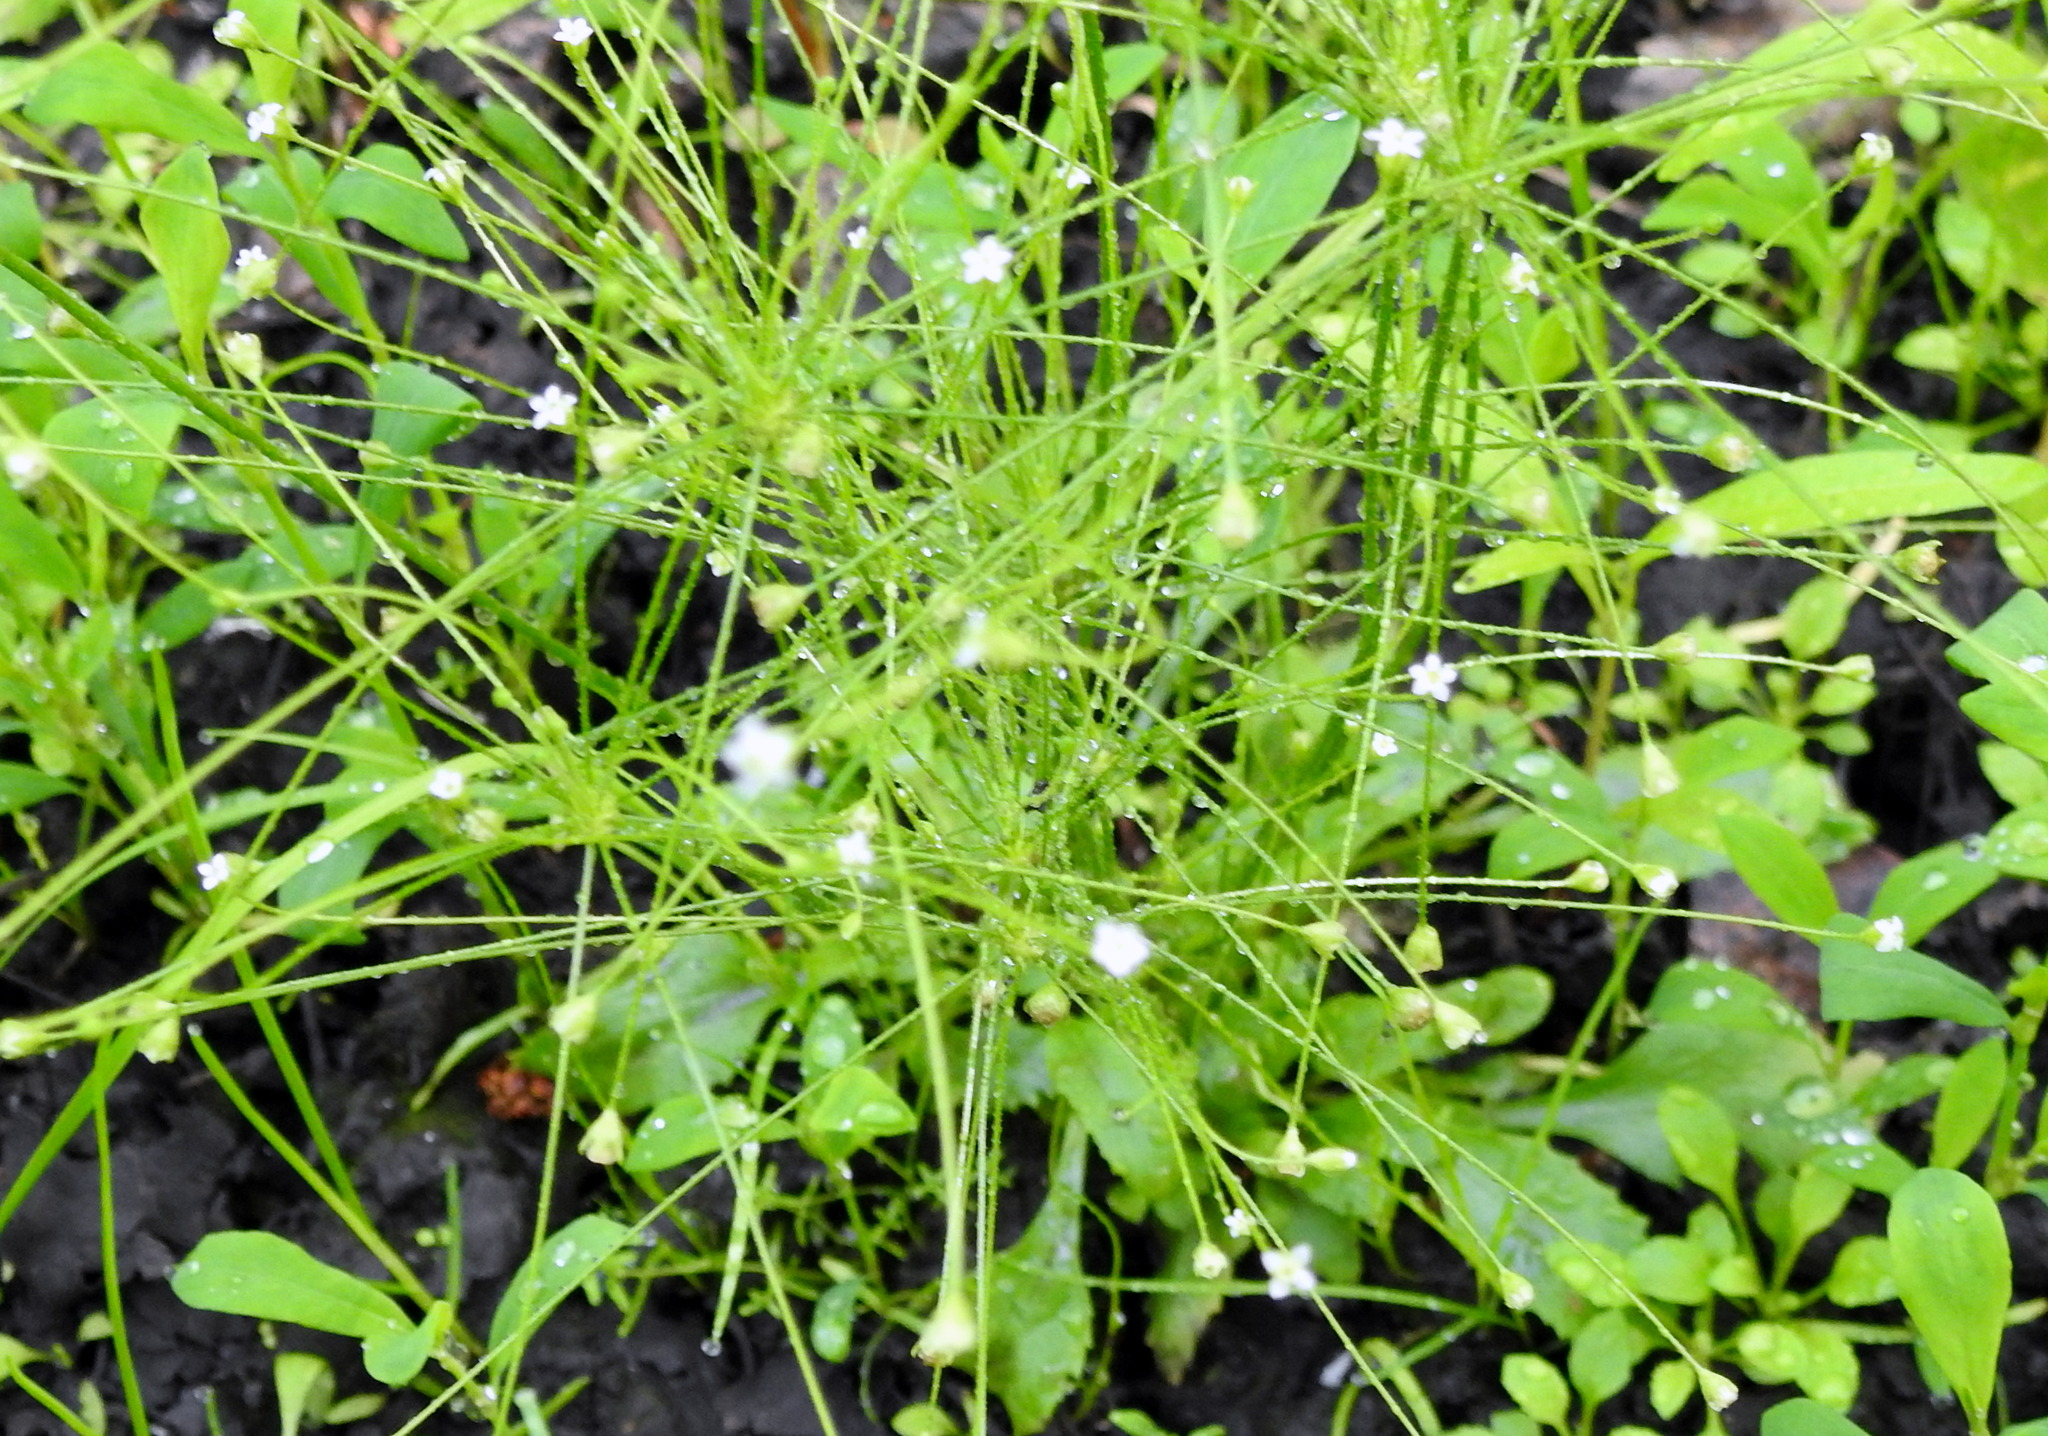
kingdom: Plantae
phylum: Tracheophyta
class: Magnoliopsida
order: Ericales
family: Primulaceae
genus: Androsace
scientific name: Androsace filiformis
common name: Filiform rock jasmine
